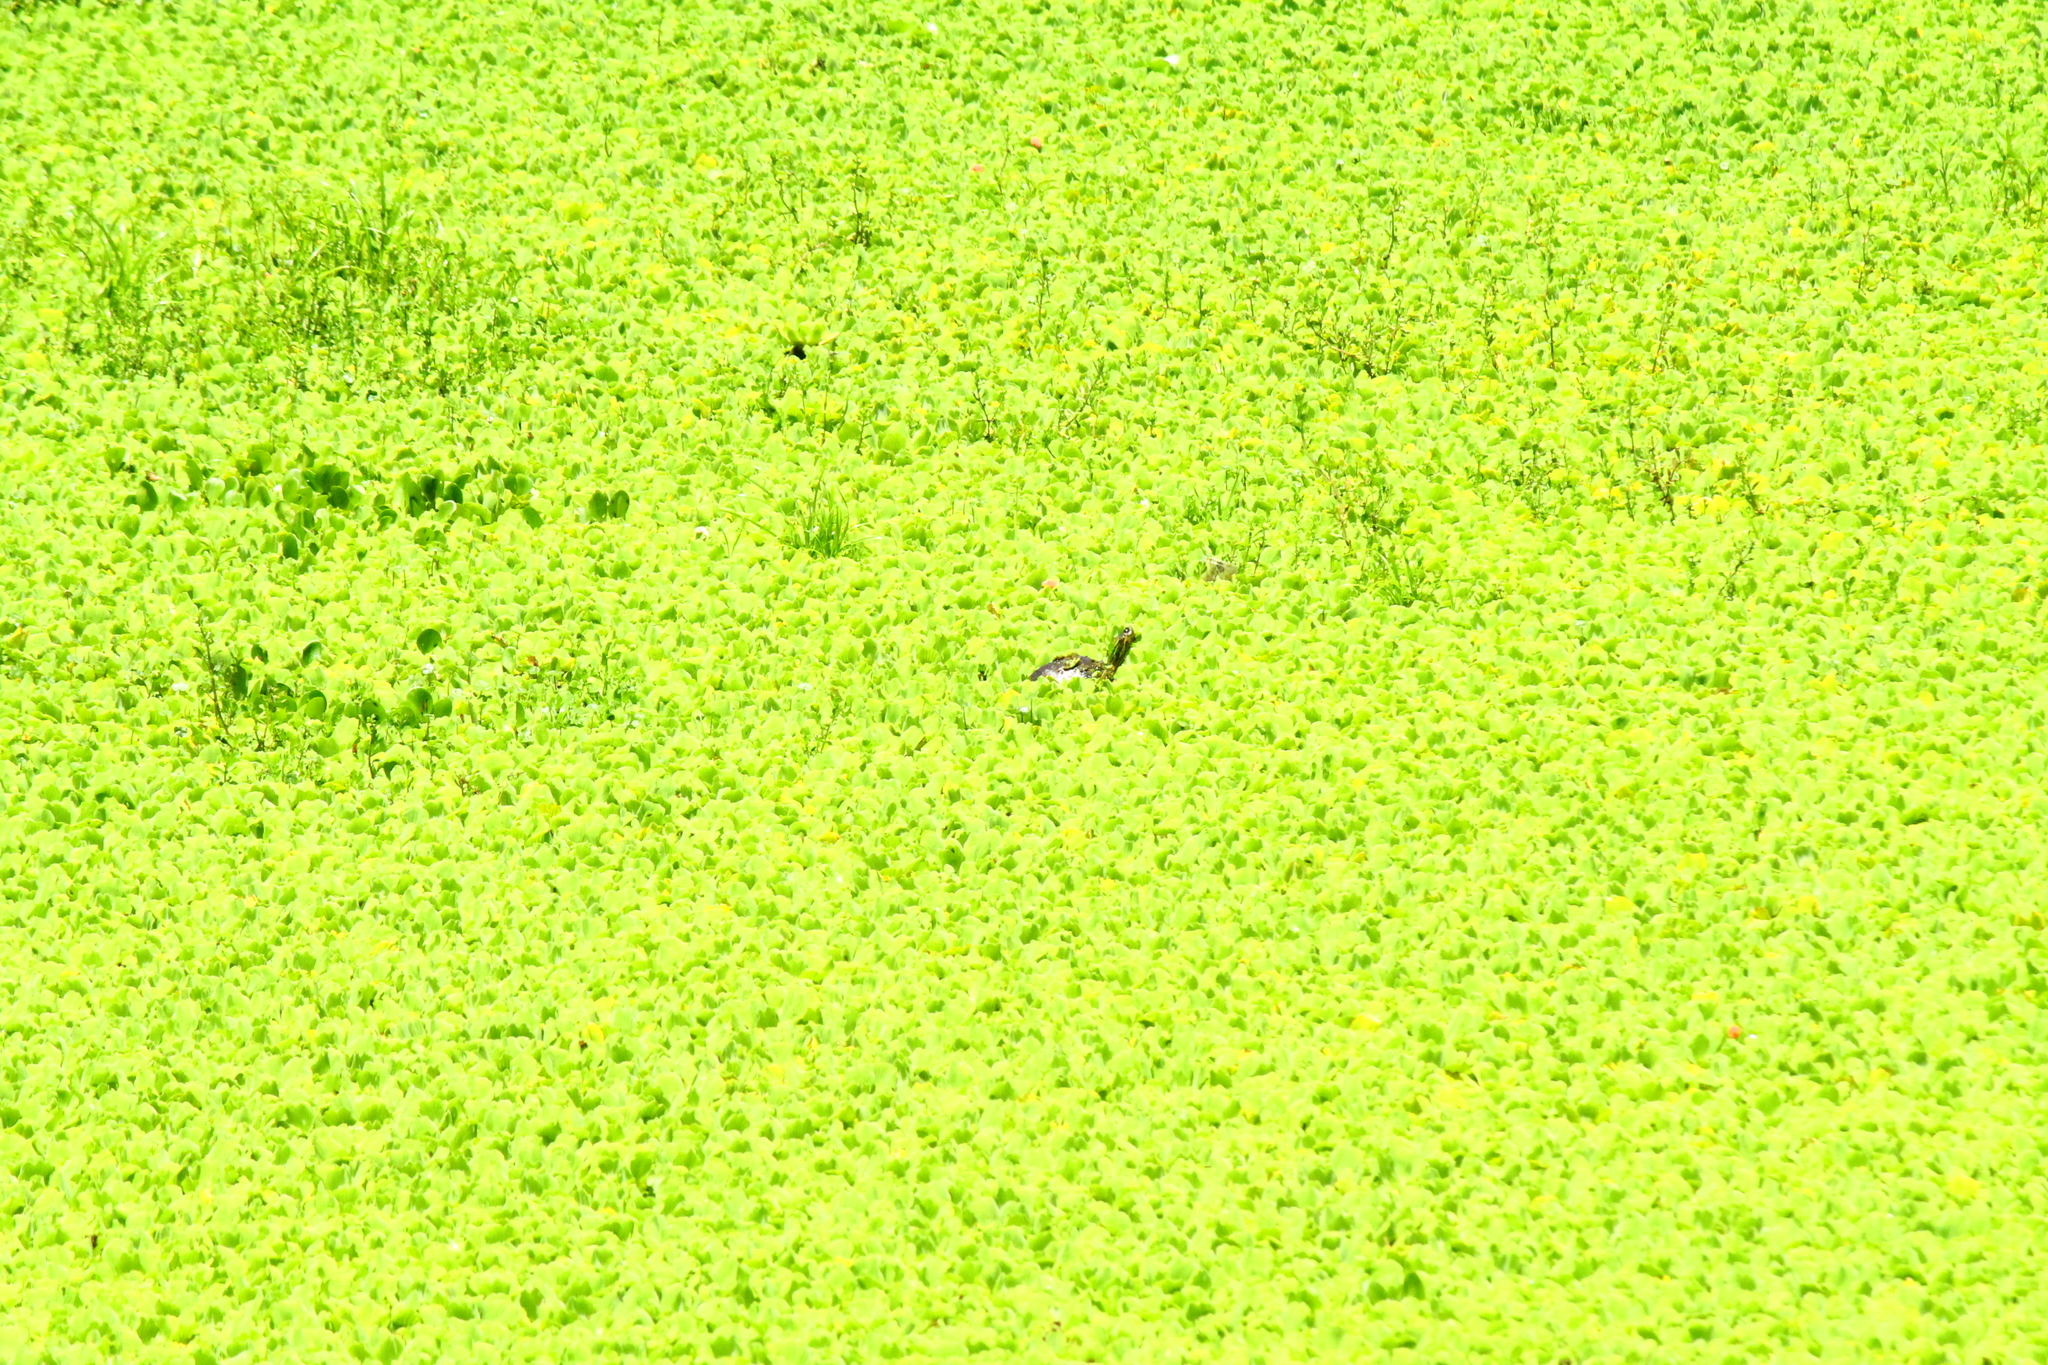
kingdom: Animalia
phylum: Chordata
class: Testudines
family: Emydidae
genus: Trachemys
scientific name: Trachemys dorbigni
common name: Black-bellied slider
